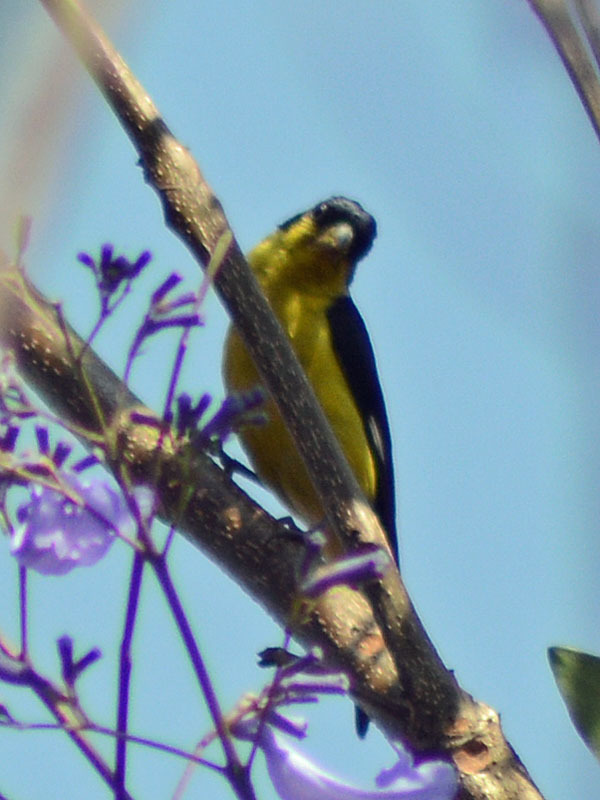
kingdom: Animalia
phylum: Chordata
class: Aves
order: Passeriformes
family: Fringillidae
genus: Spinus
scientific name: Spinus psaltria
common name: Lesser goldfinch
